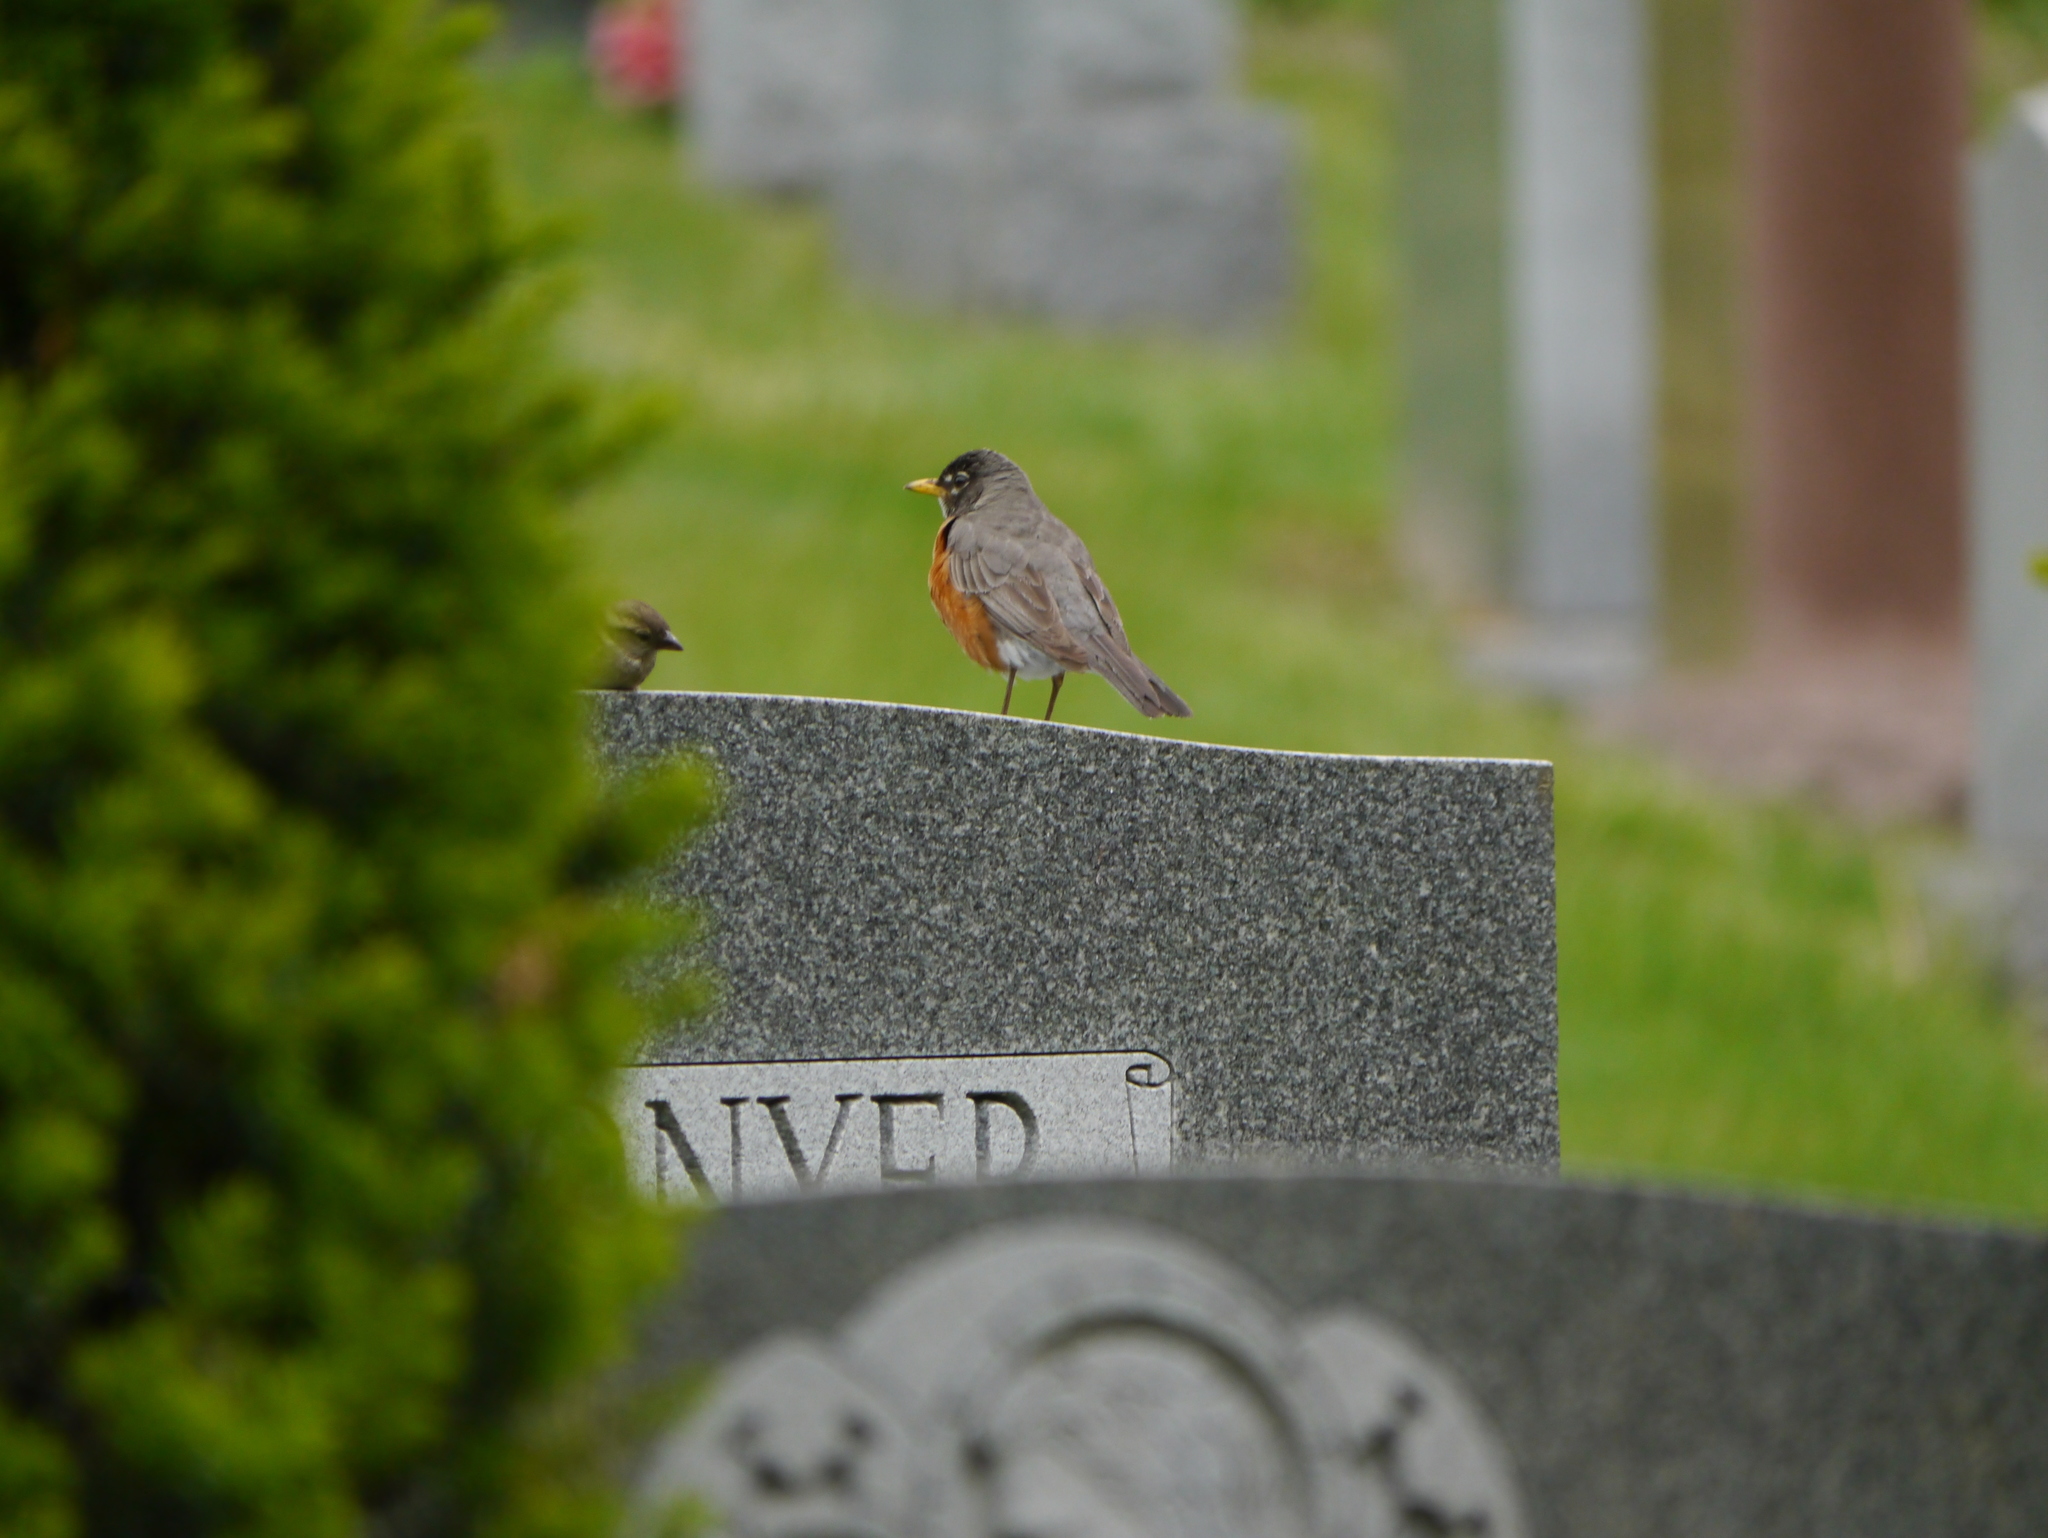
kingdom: Animalia
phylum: Chordata
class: Aves
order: Passeriformes
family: Turdidae
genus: Turdus
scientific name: Turdus migratorius
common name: American robin
